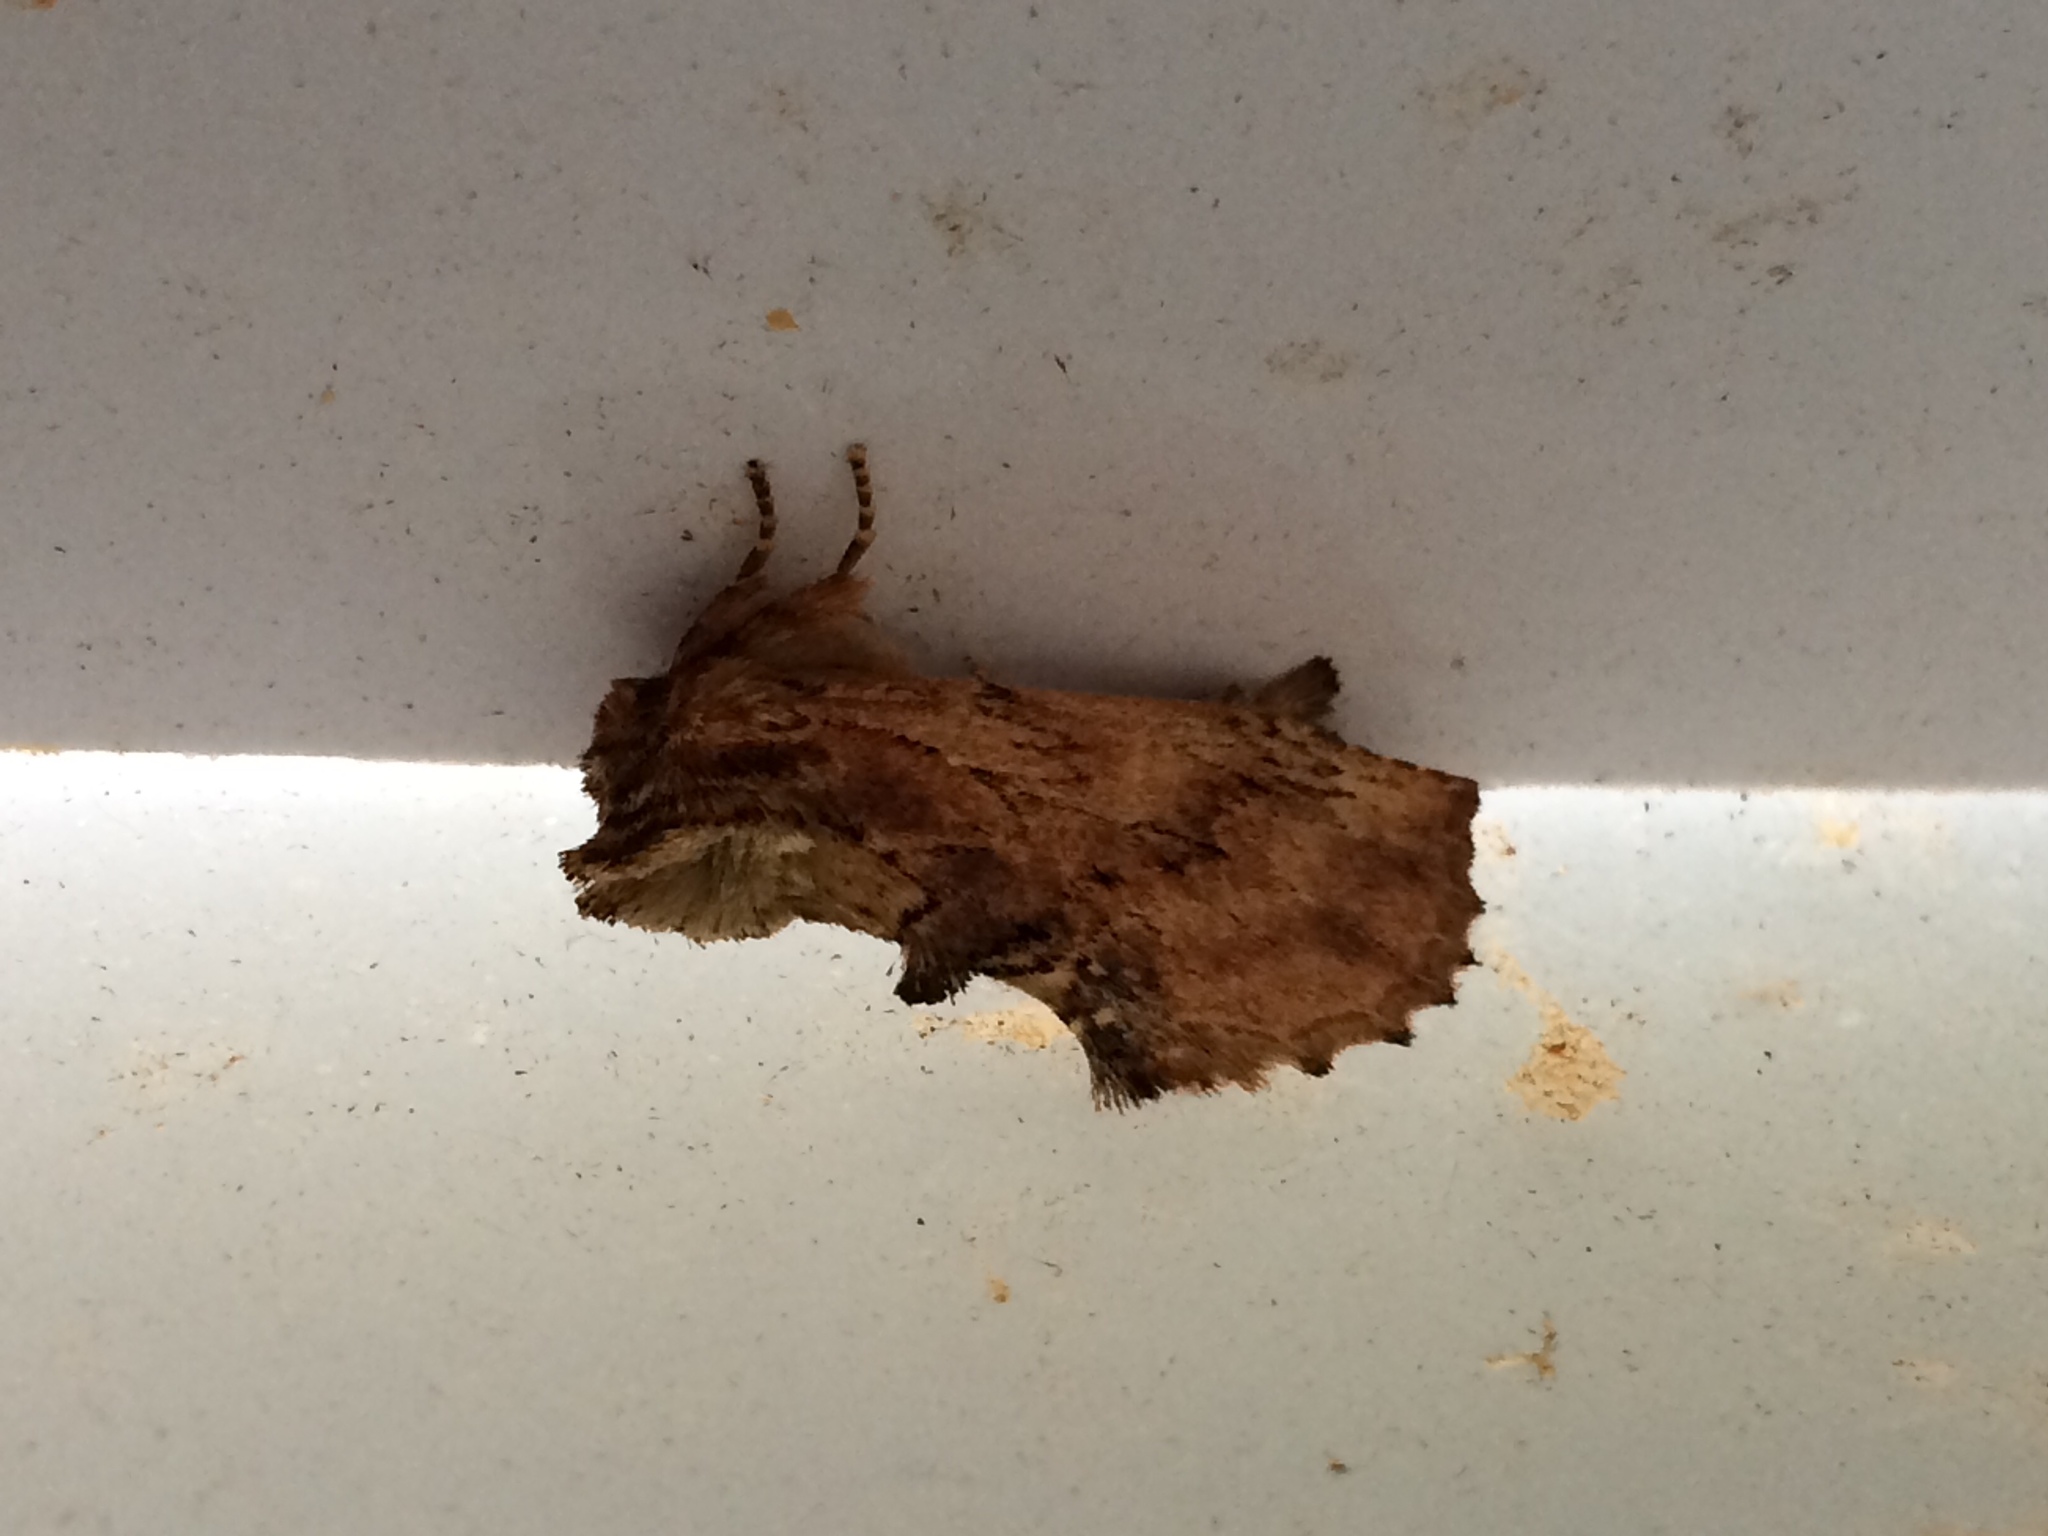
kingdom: Animalia
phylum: Arthropoda
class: Insecta
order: Lepidoptera
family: Notodontidae
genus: Ptilodon
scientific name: Ptilodon capucina
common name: Coxcomb prominent
